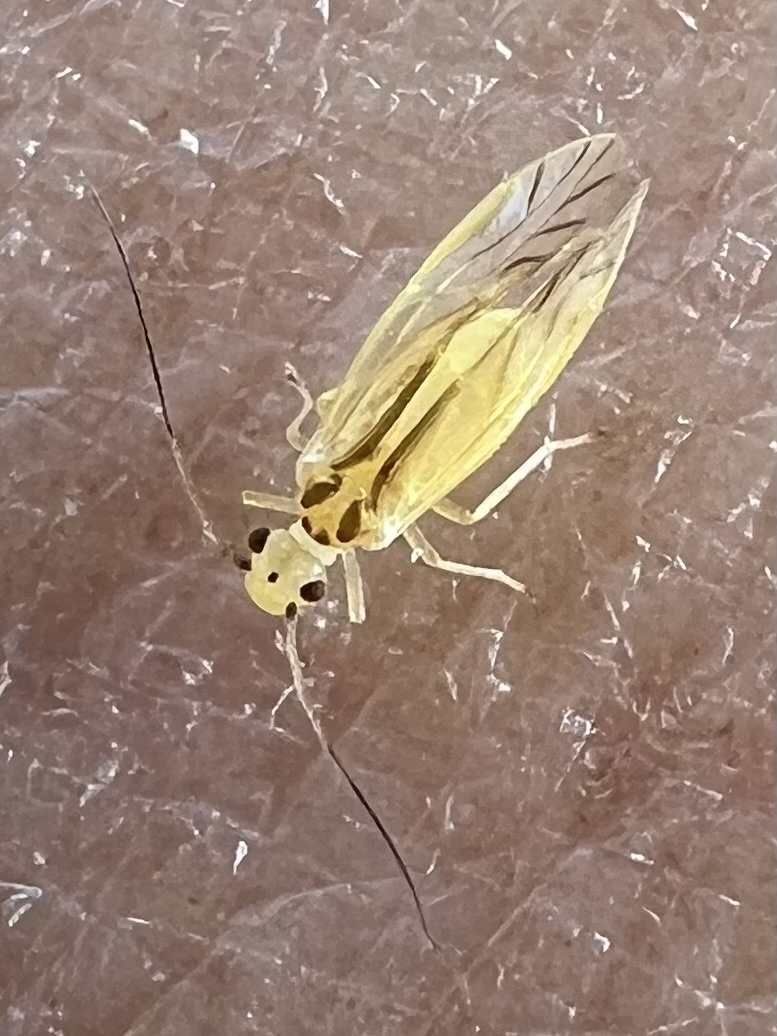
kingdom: Animalia
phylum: Arthropoda
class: Insecta
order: Psocodea
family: Caeciliusidae
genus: Valenzuela
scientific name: Valenzuela flavidus
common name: Yellow barklouse
